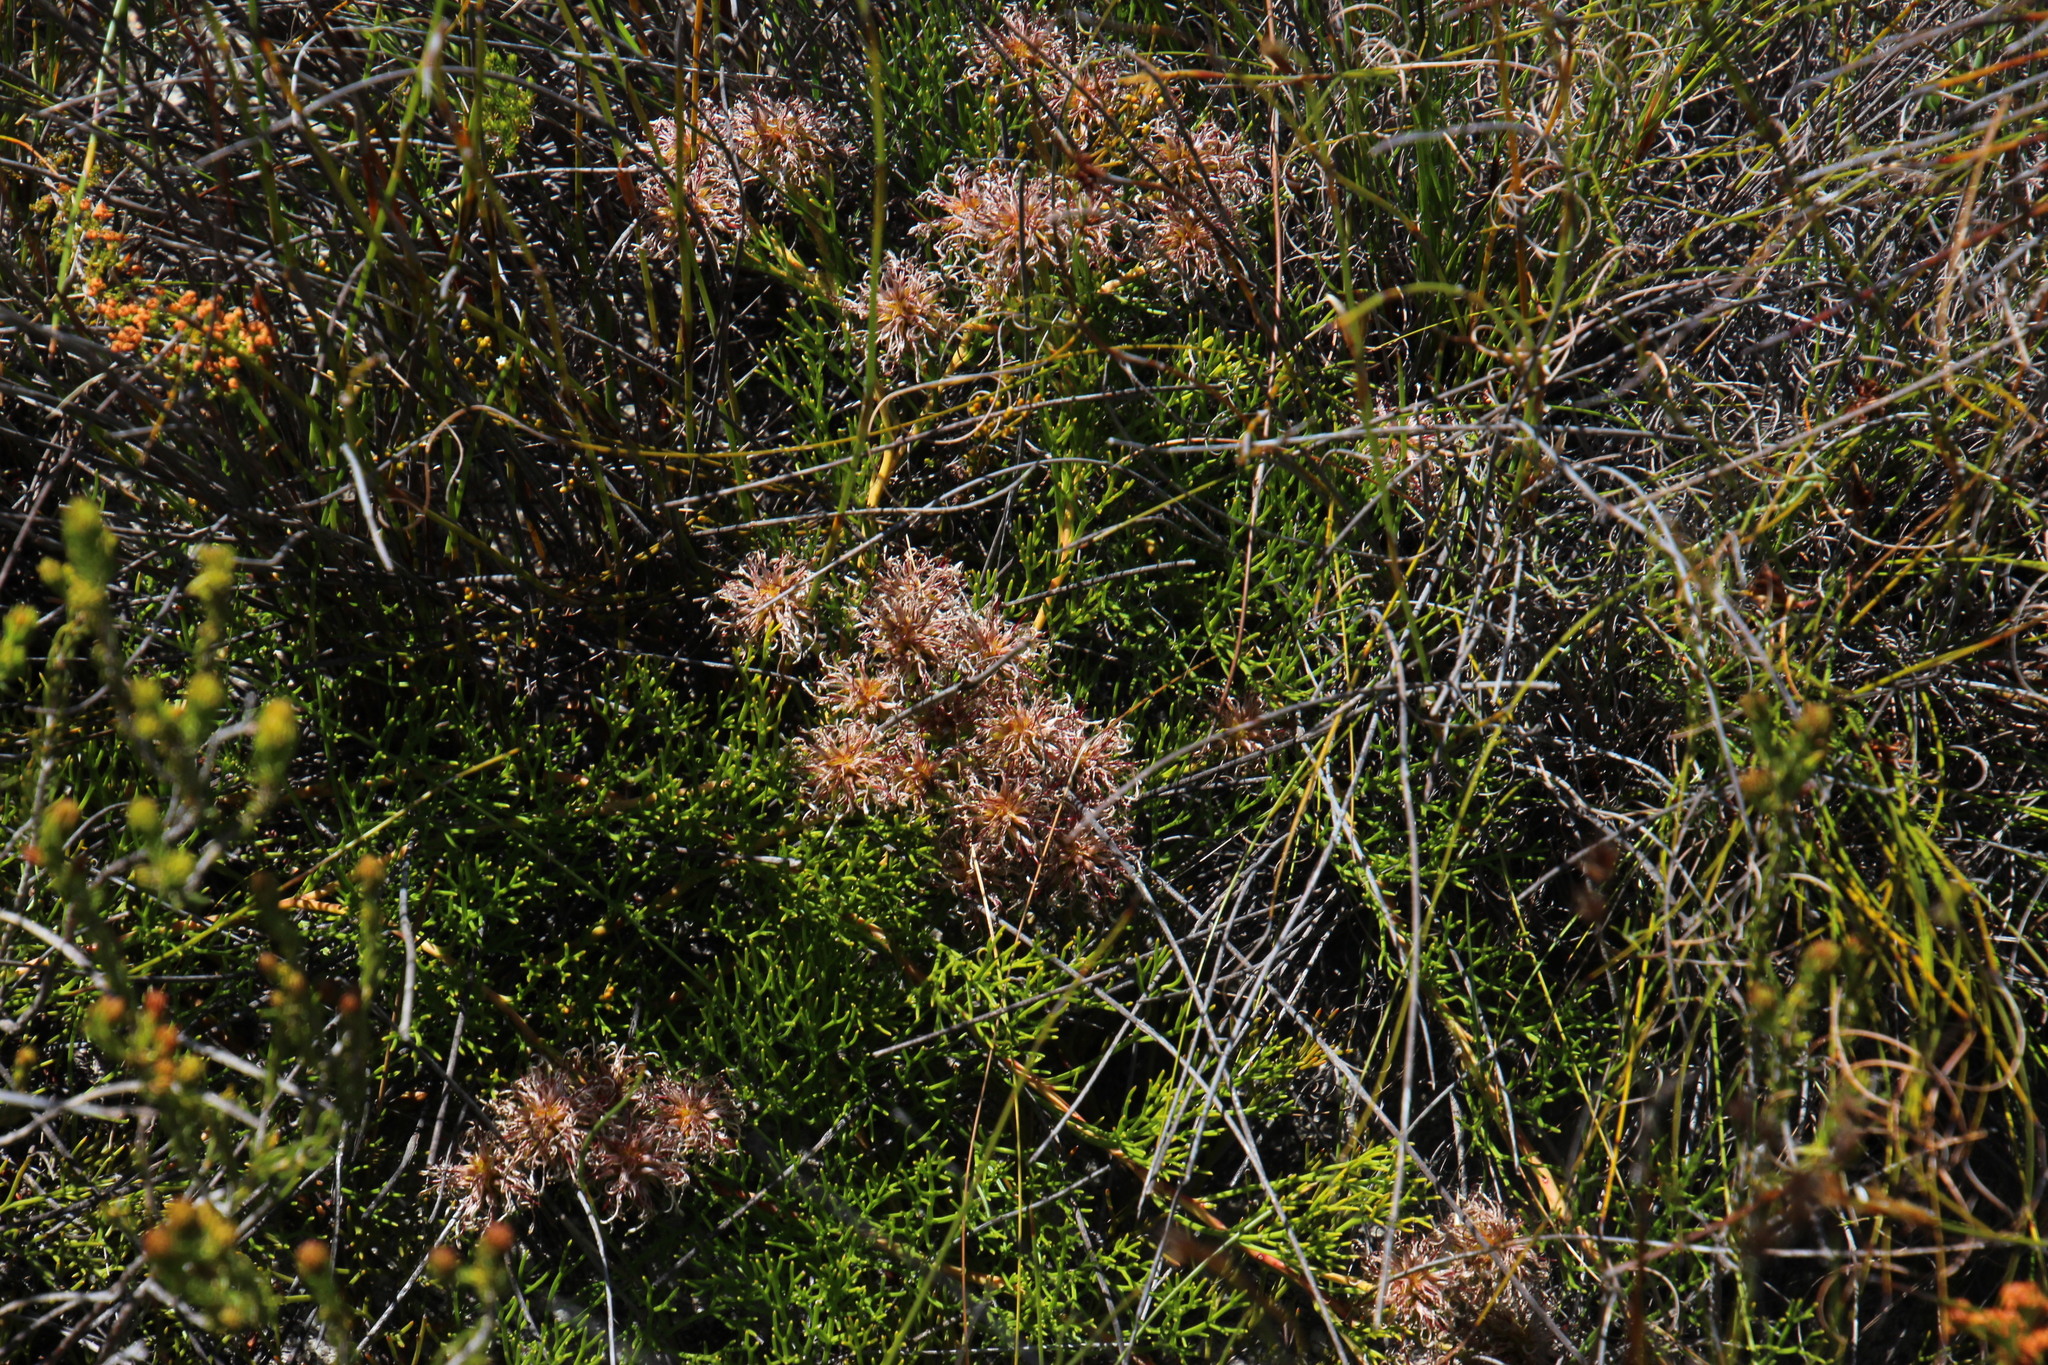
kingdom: Plantae
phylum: Tracheophyta
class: Magnoliopsida
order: Proteales
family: Proteaceae
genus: Serruria
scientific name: Serruria cygnea
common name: Swan spiderhead
